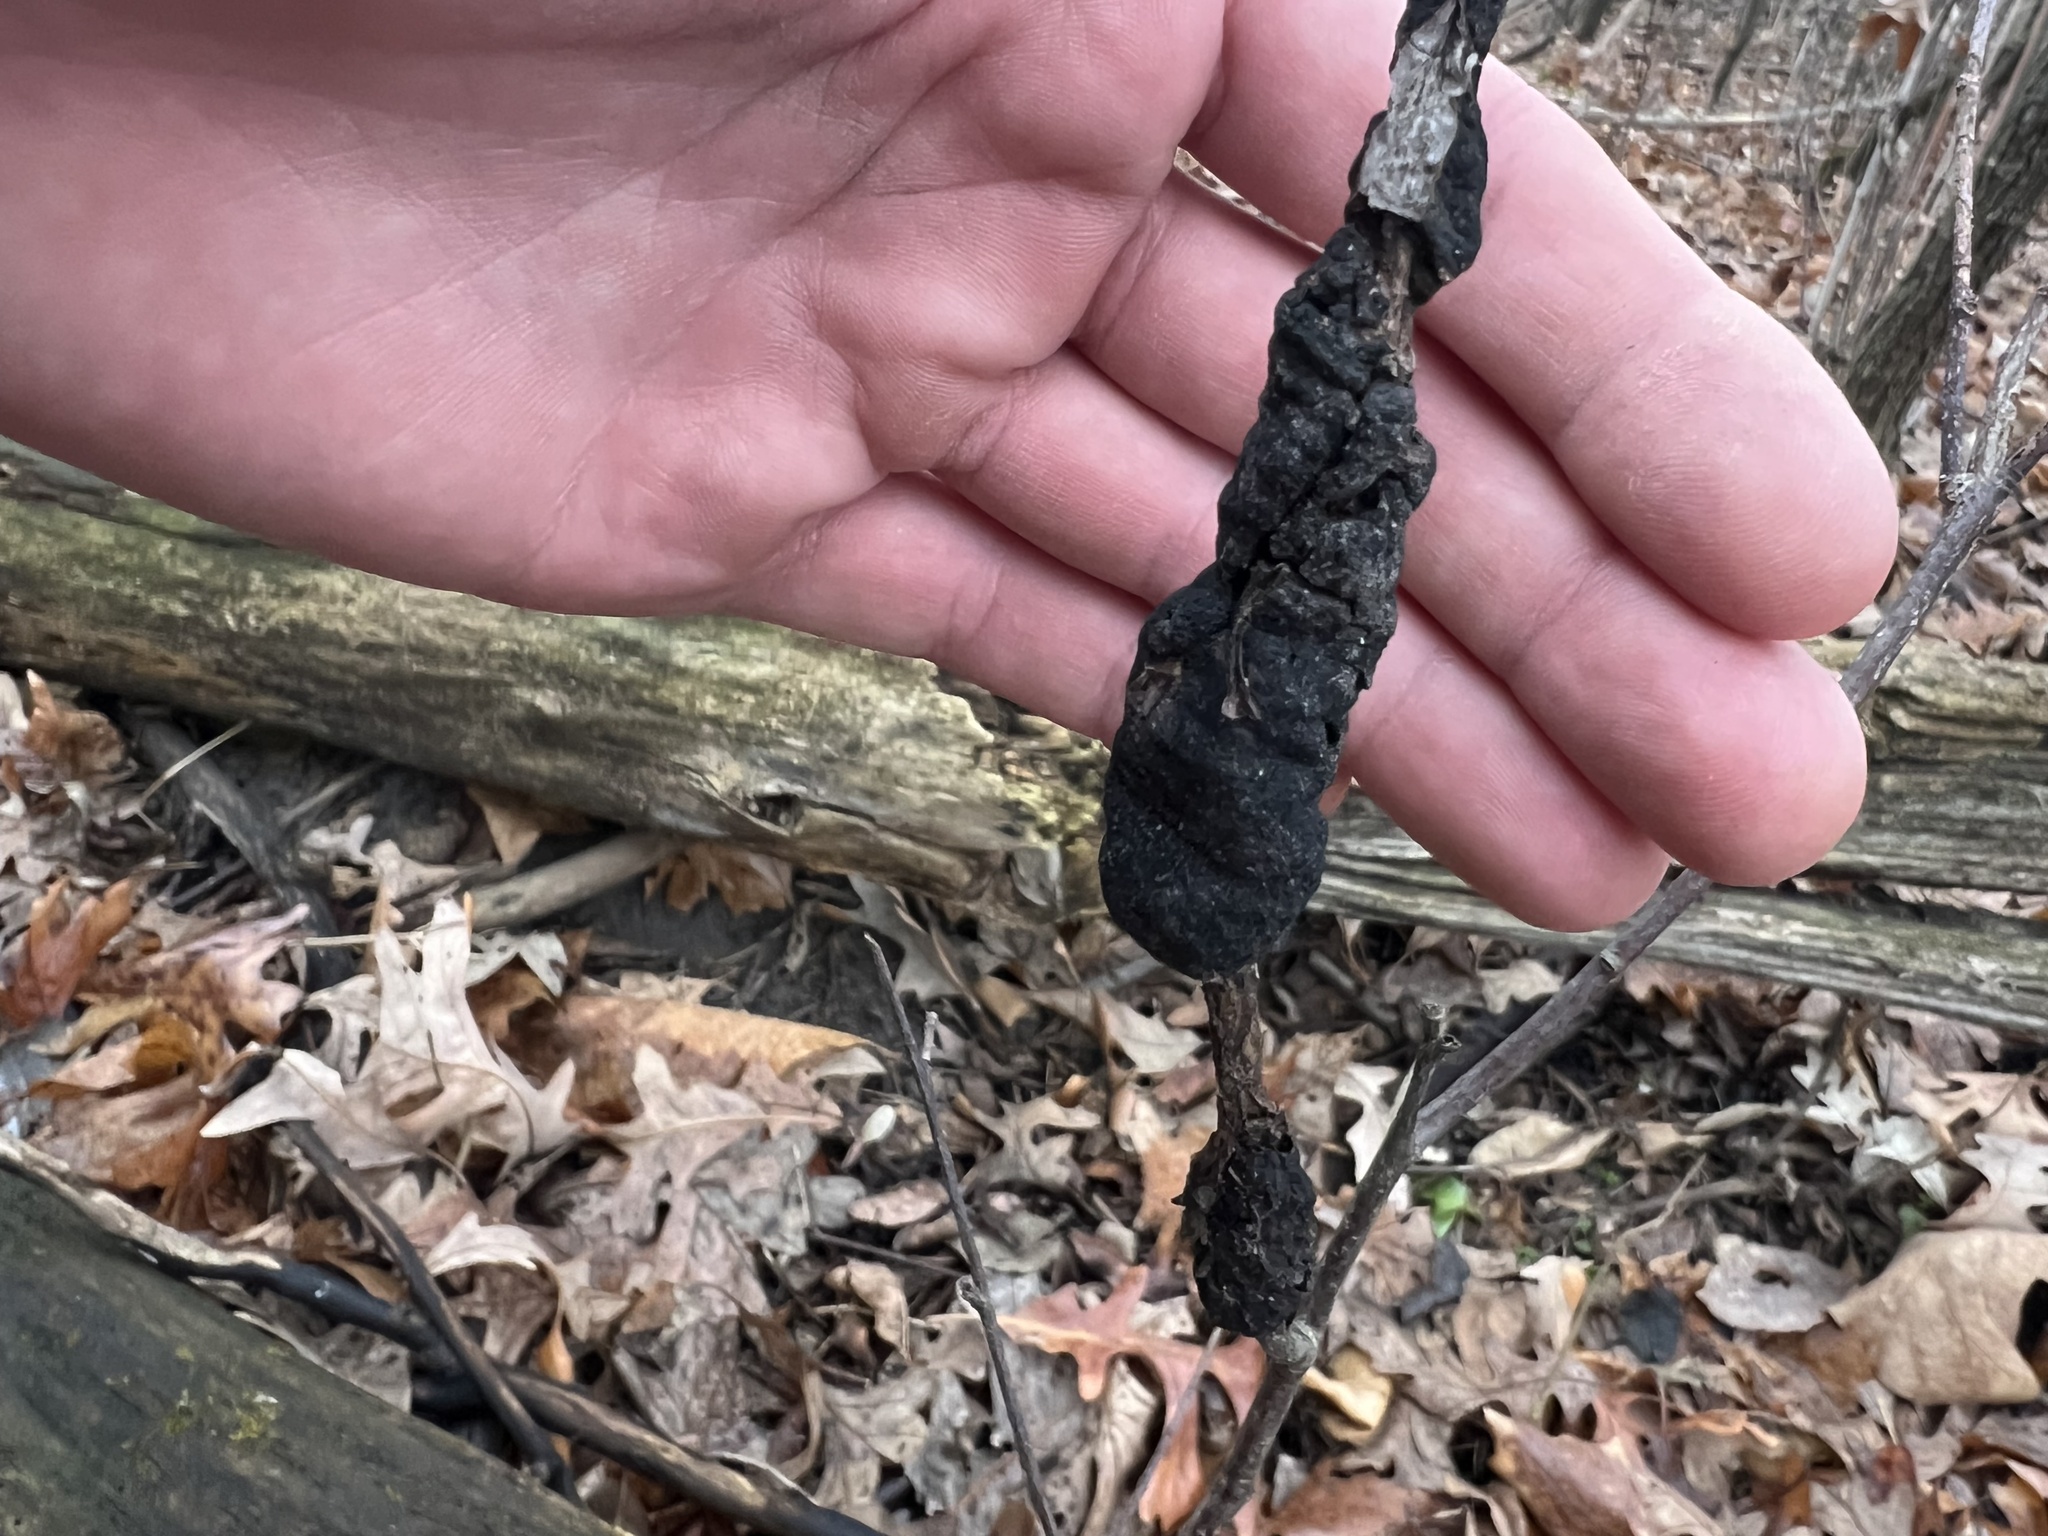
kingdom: Fungi
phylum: Ascomycota
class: Dothideomycetes
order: Venturiales
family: Venturiaceae
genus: Apiosporina
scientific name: Apiosporina morbosa
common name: Black knot
